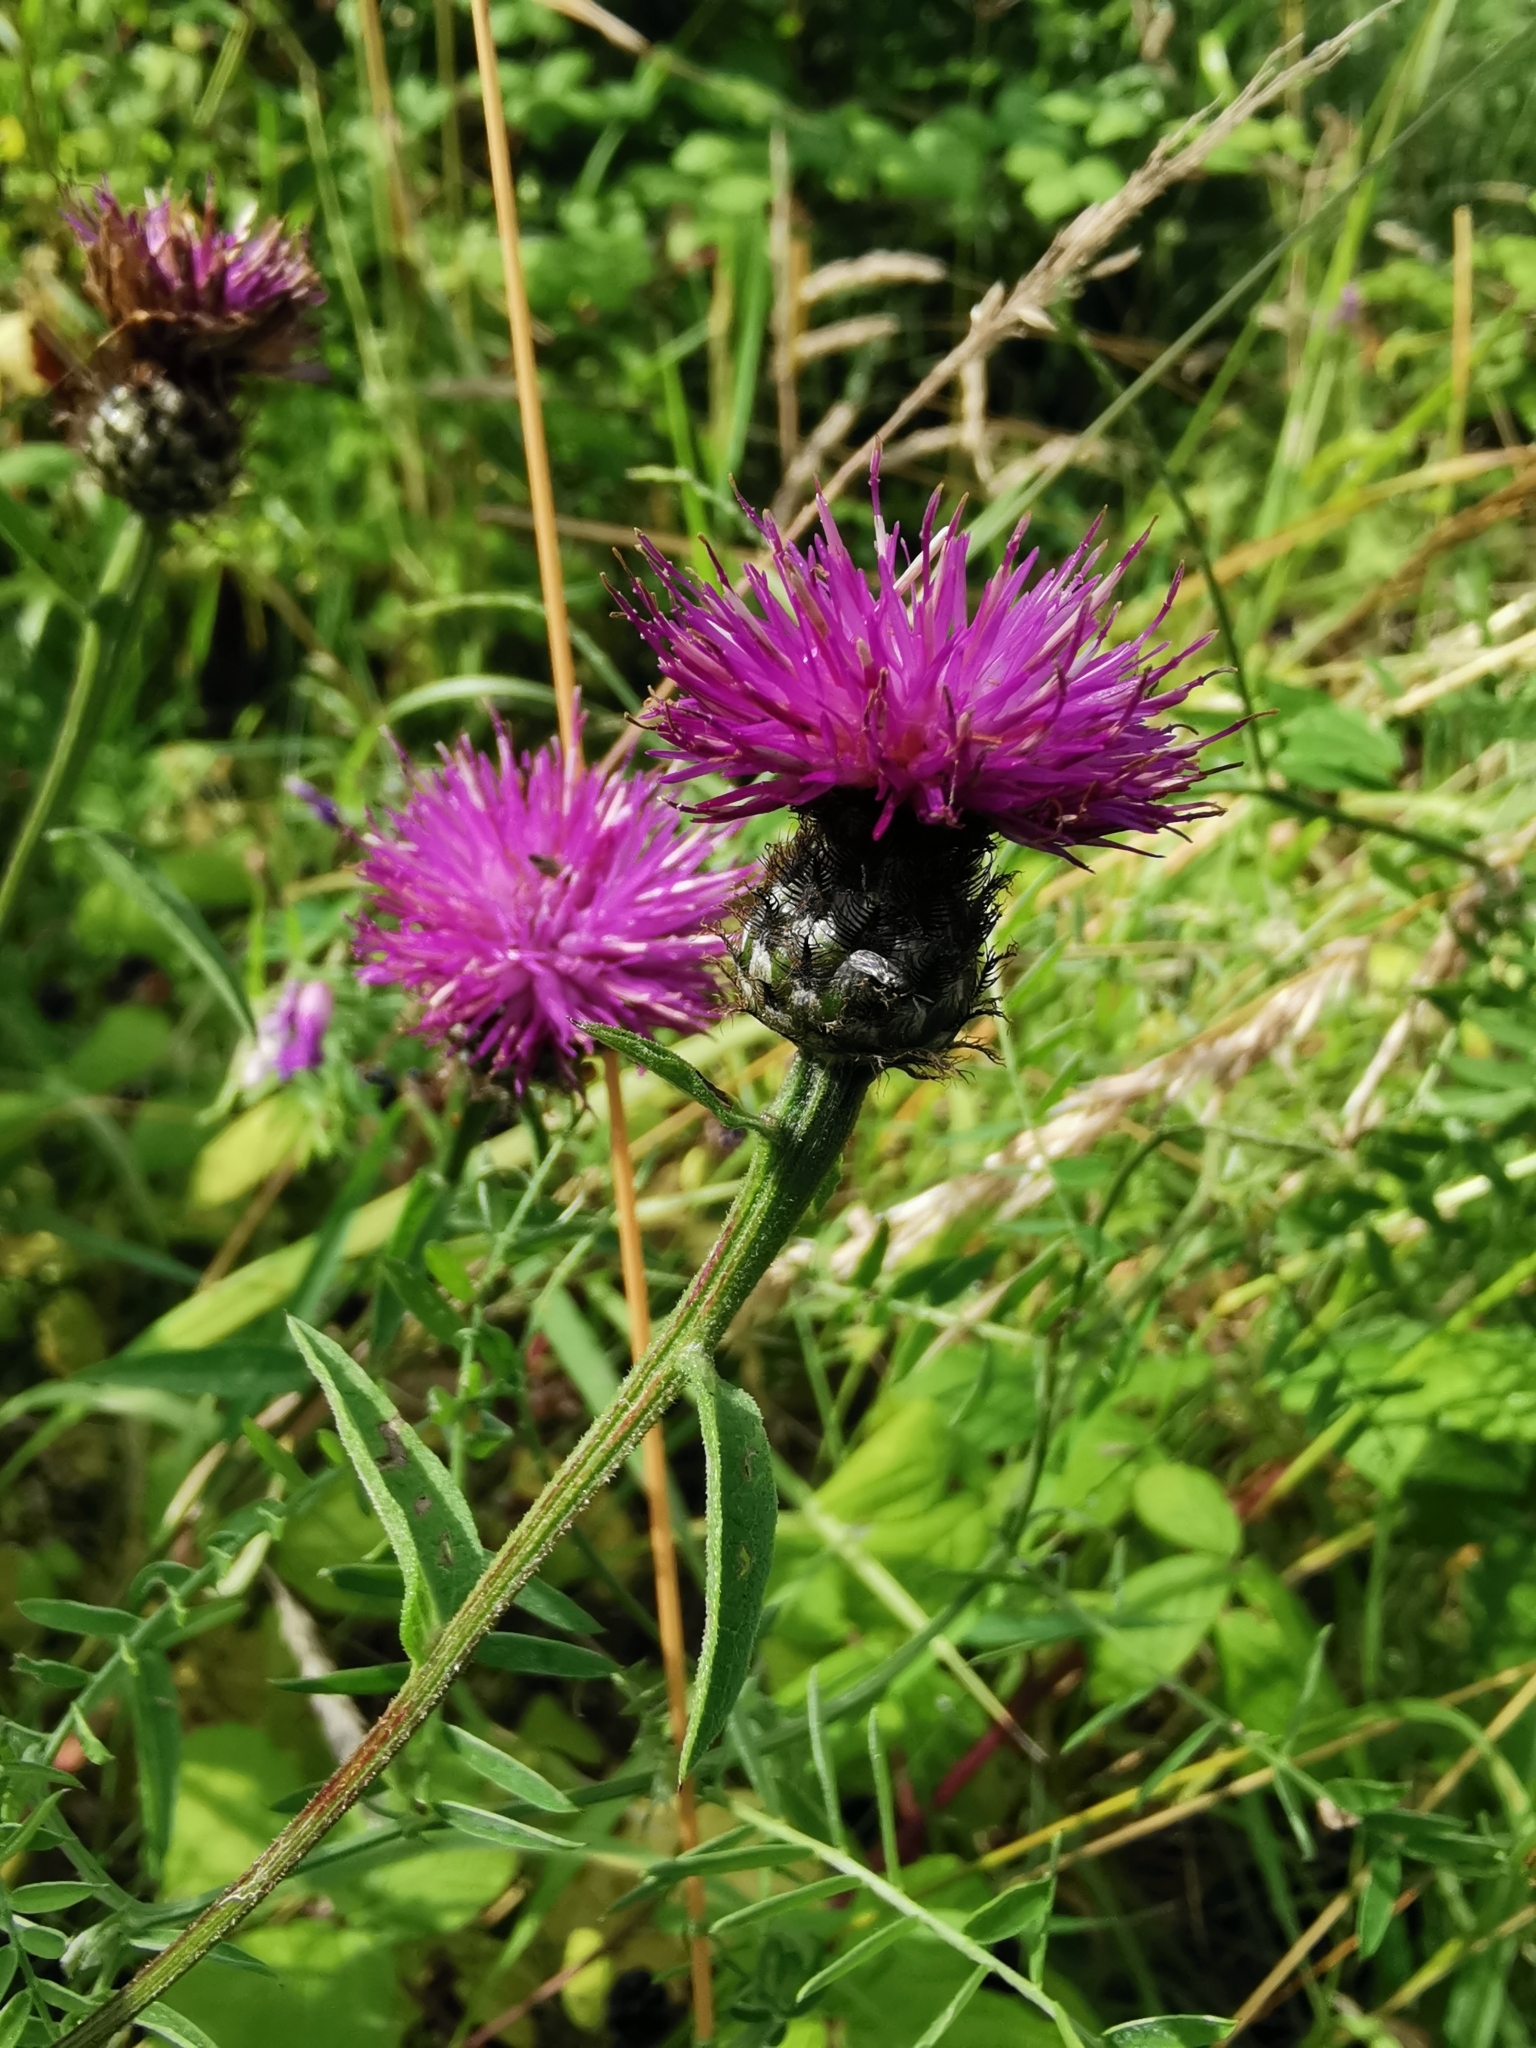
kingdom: Plantae
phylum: Tracheophyta
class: Magnoliopsida
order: Asterales
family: Asteraceae
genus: Centaurea
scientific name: Centaurea nigra
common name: Lesser knapweed
